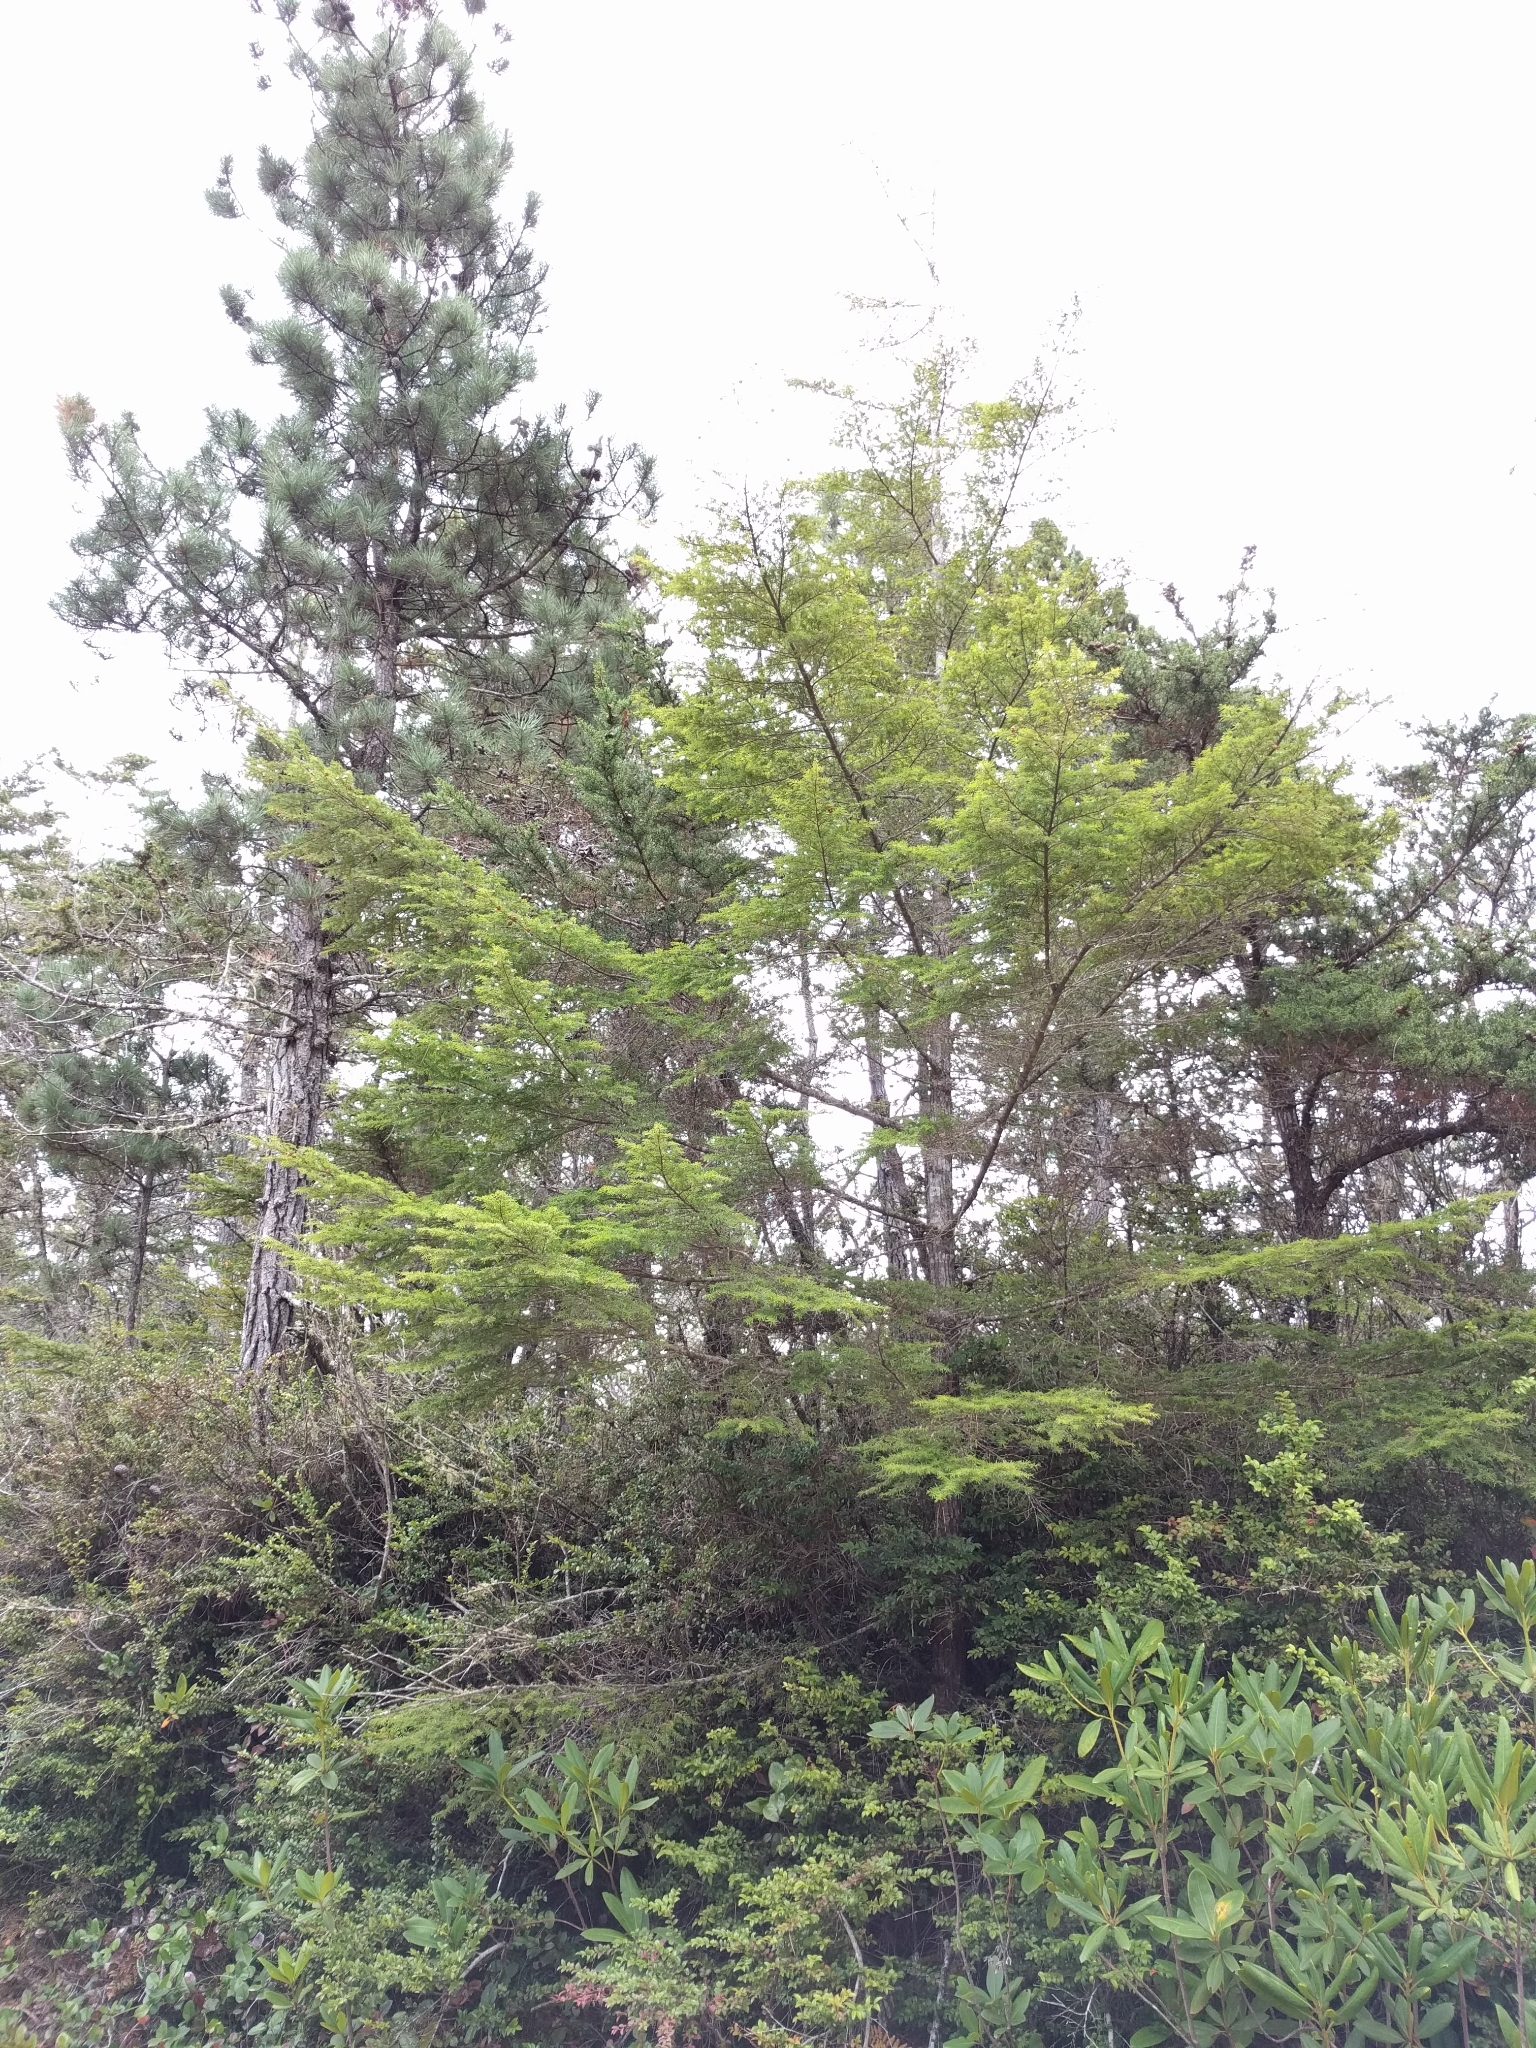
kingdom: Plantae
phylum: Tracheophyta
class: Pinopsida
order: Pinales
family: Pinaceae
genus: Tsuga
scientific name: Tsuga heterophylla
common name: Western hemlock
